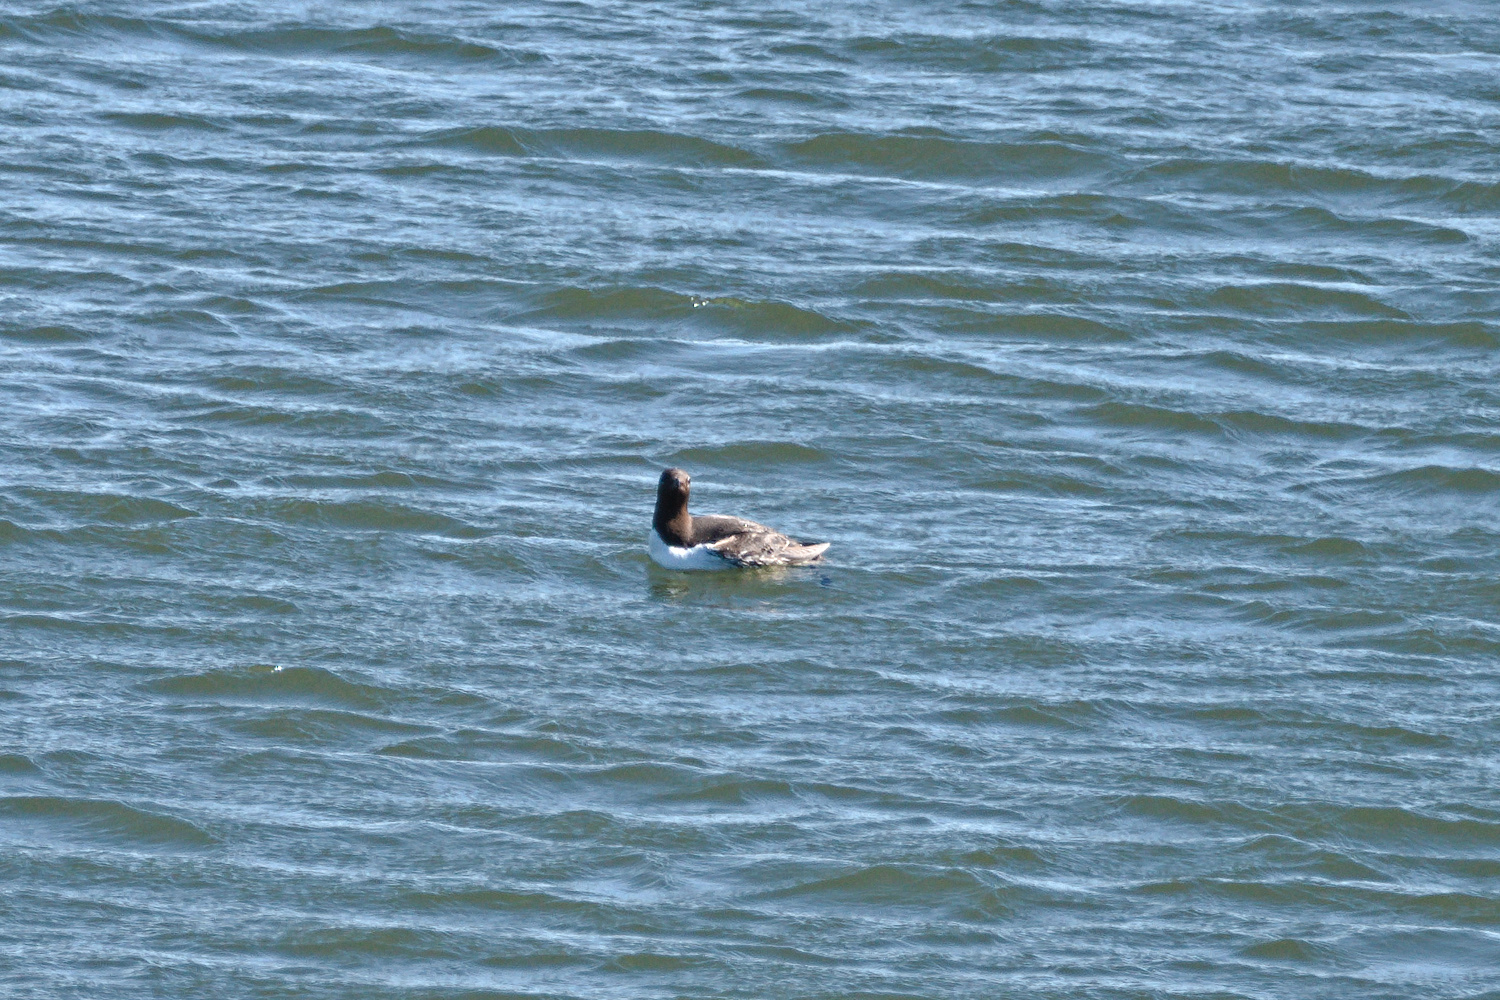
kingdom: Animalia
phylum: Chordata
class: Aves
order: Charadriiformes
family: Alcidae
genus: Uria
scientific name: Uria aalge
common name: Common murre
